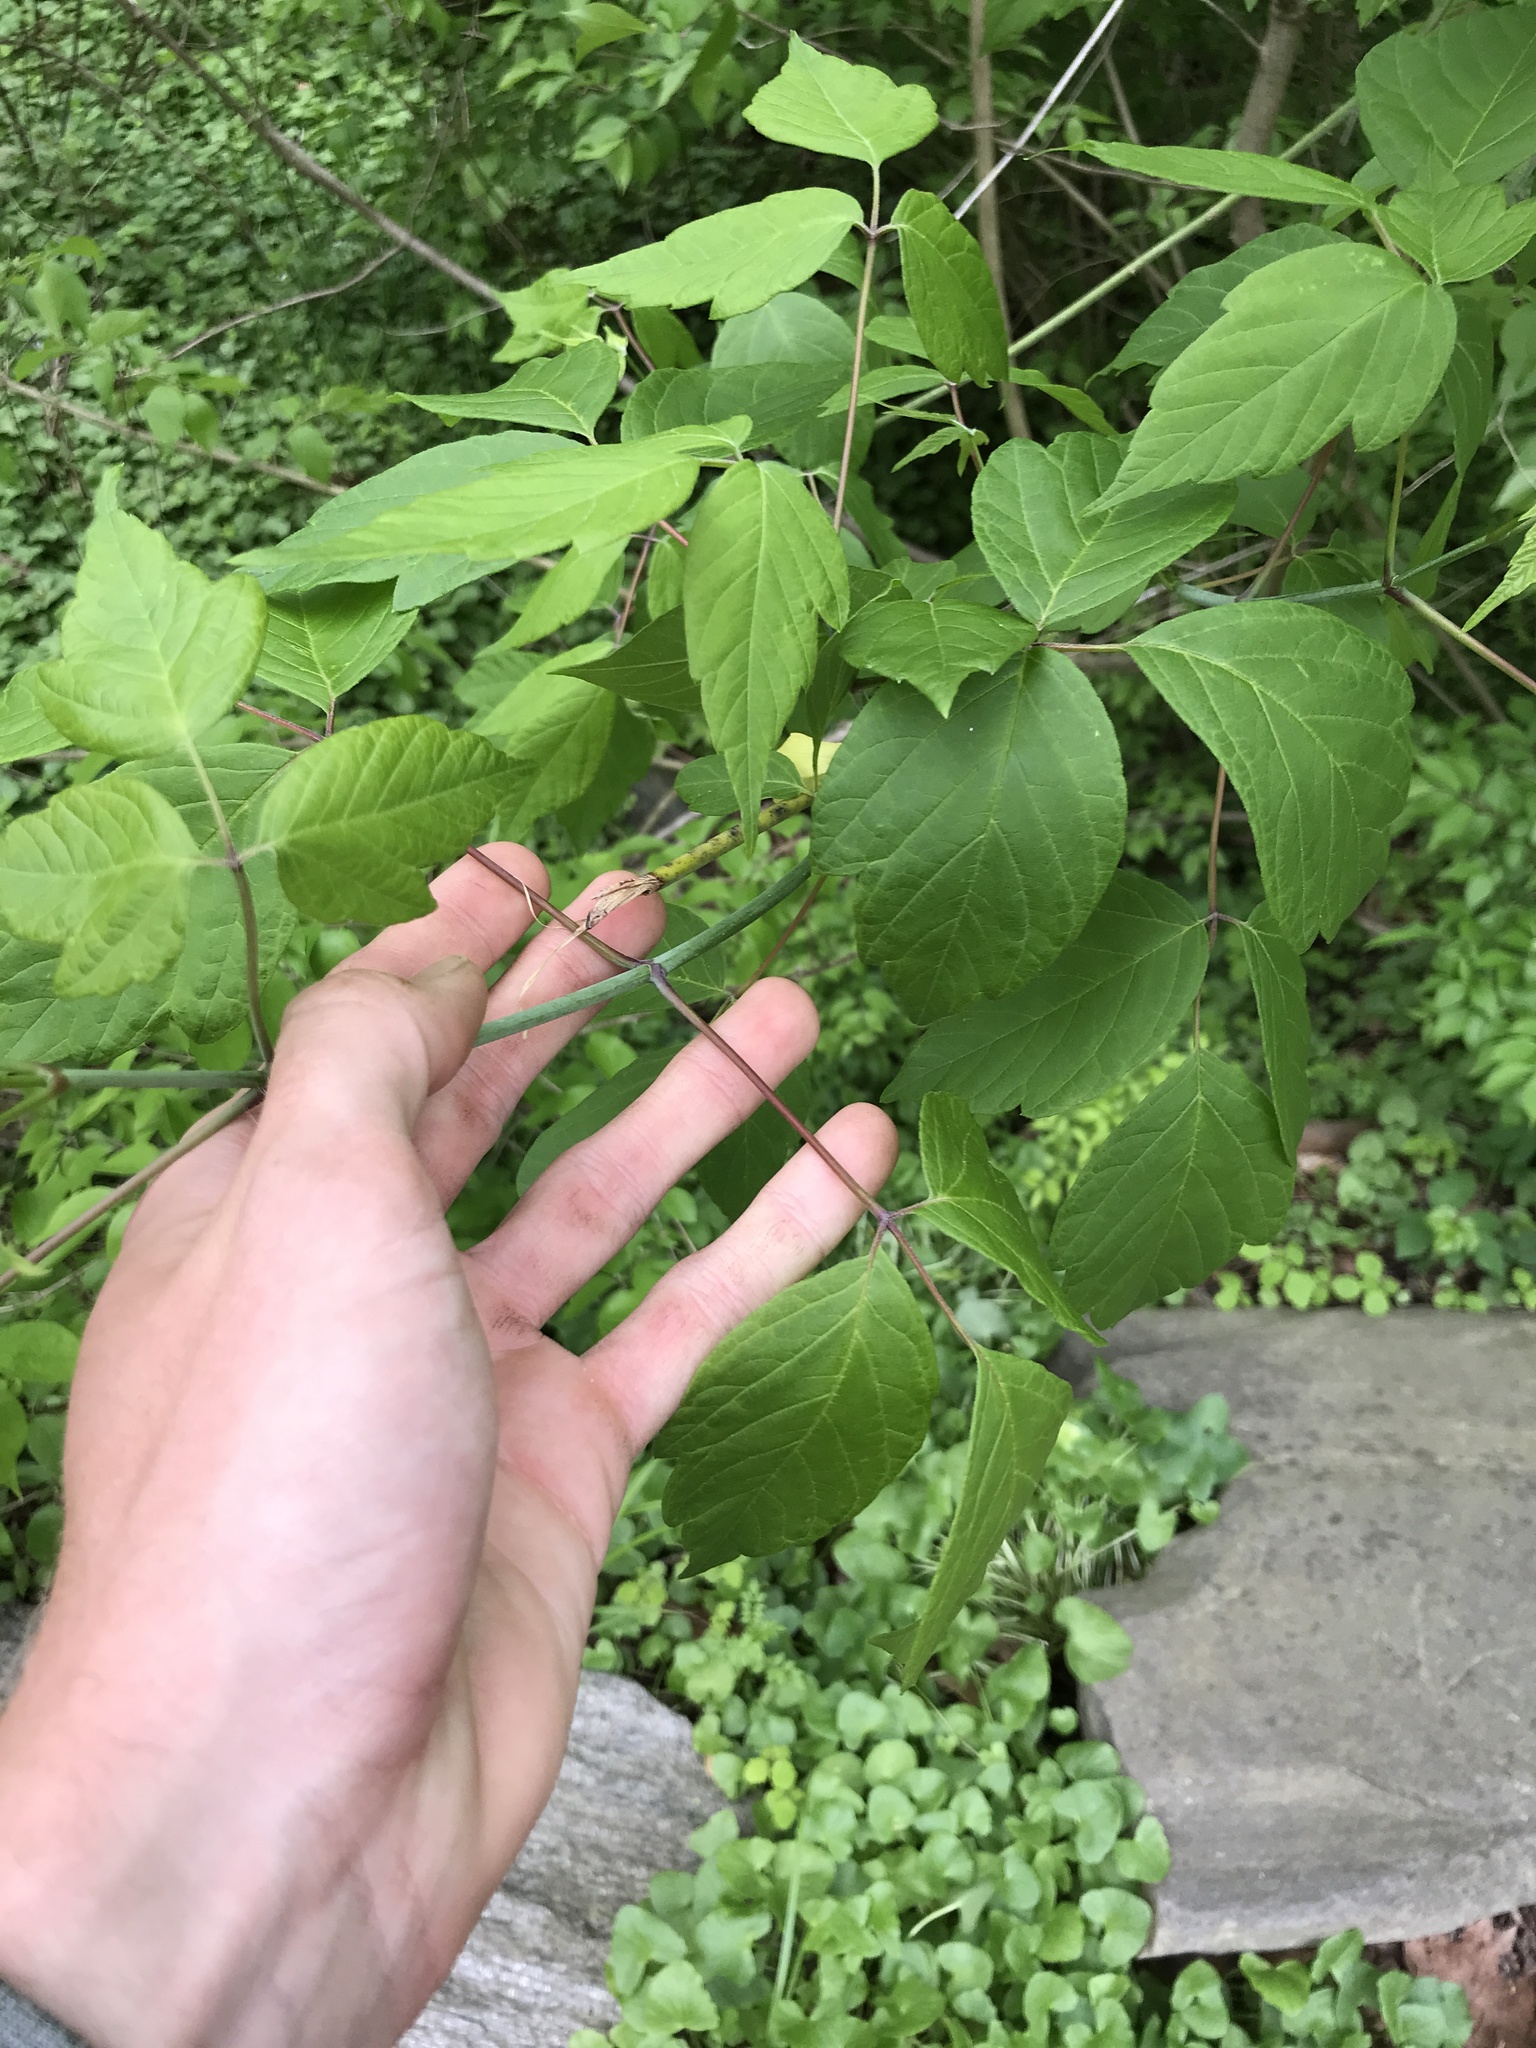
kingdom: Plantae
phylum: Tracheophyta
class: Magnoliopsida
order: Sapindales
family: Sapindaceae
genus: Acer
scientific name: Acer negundo
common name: Ashleaf maple
